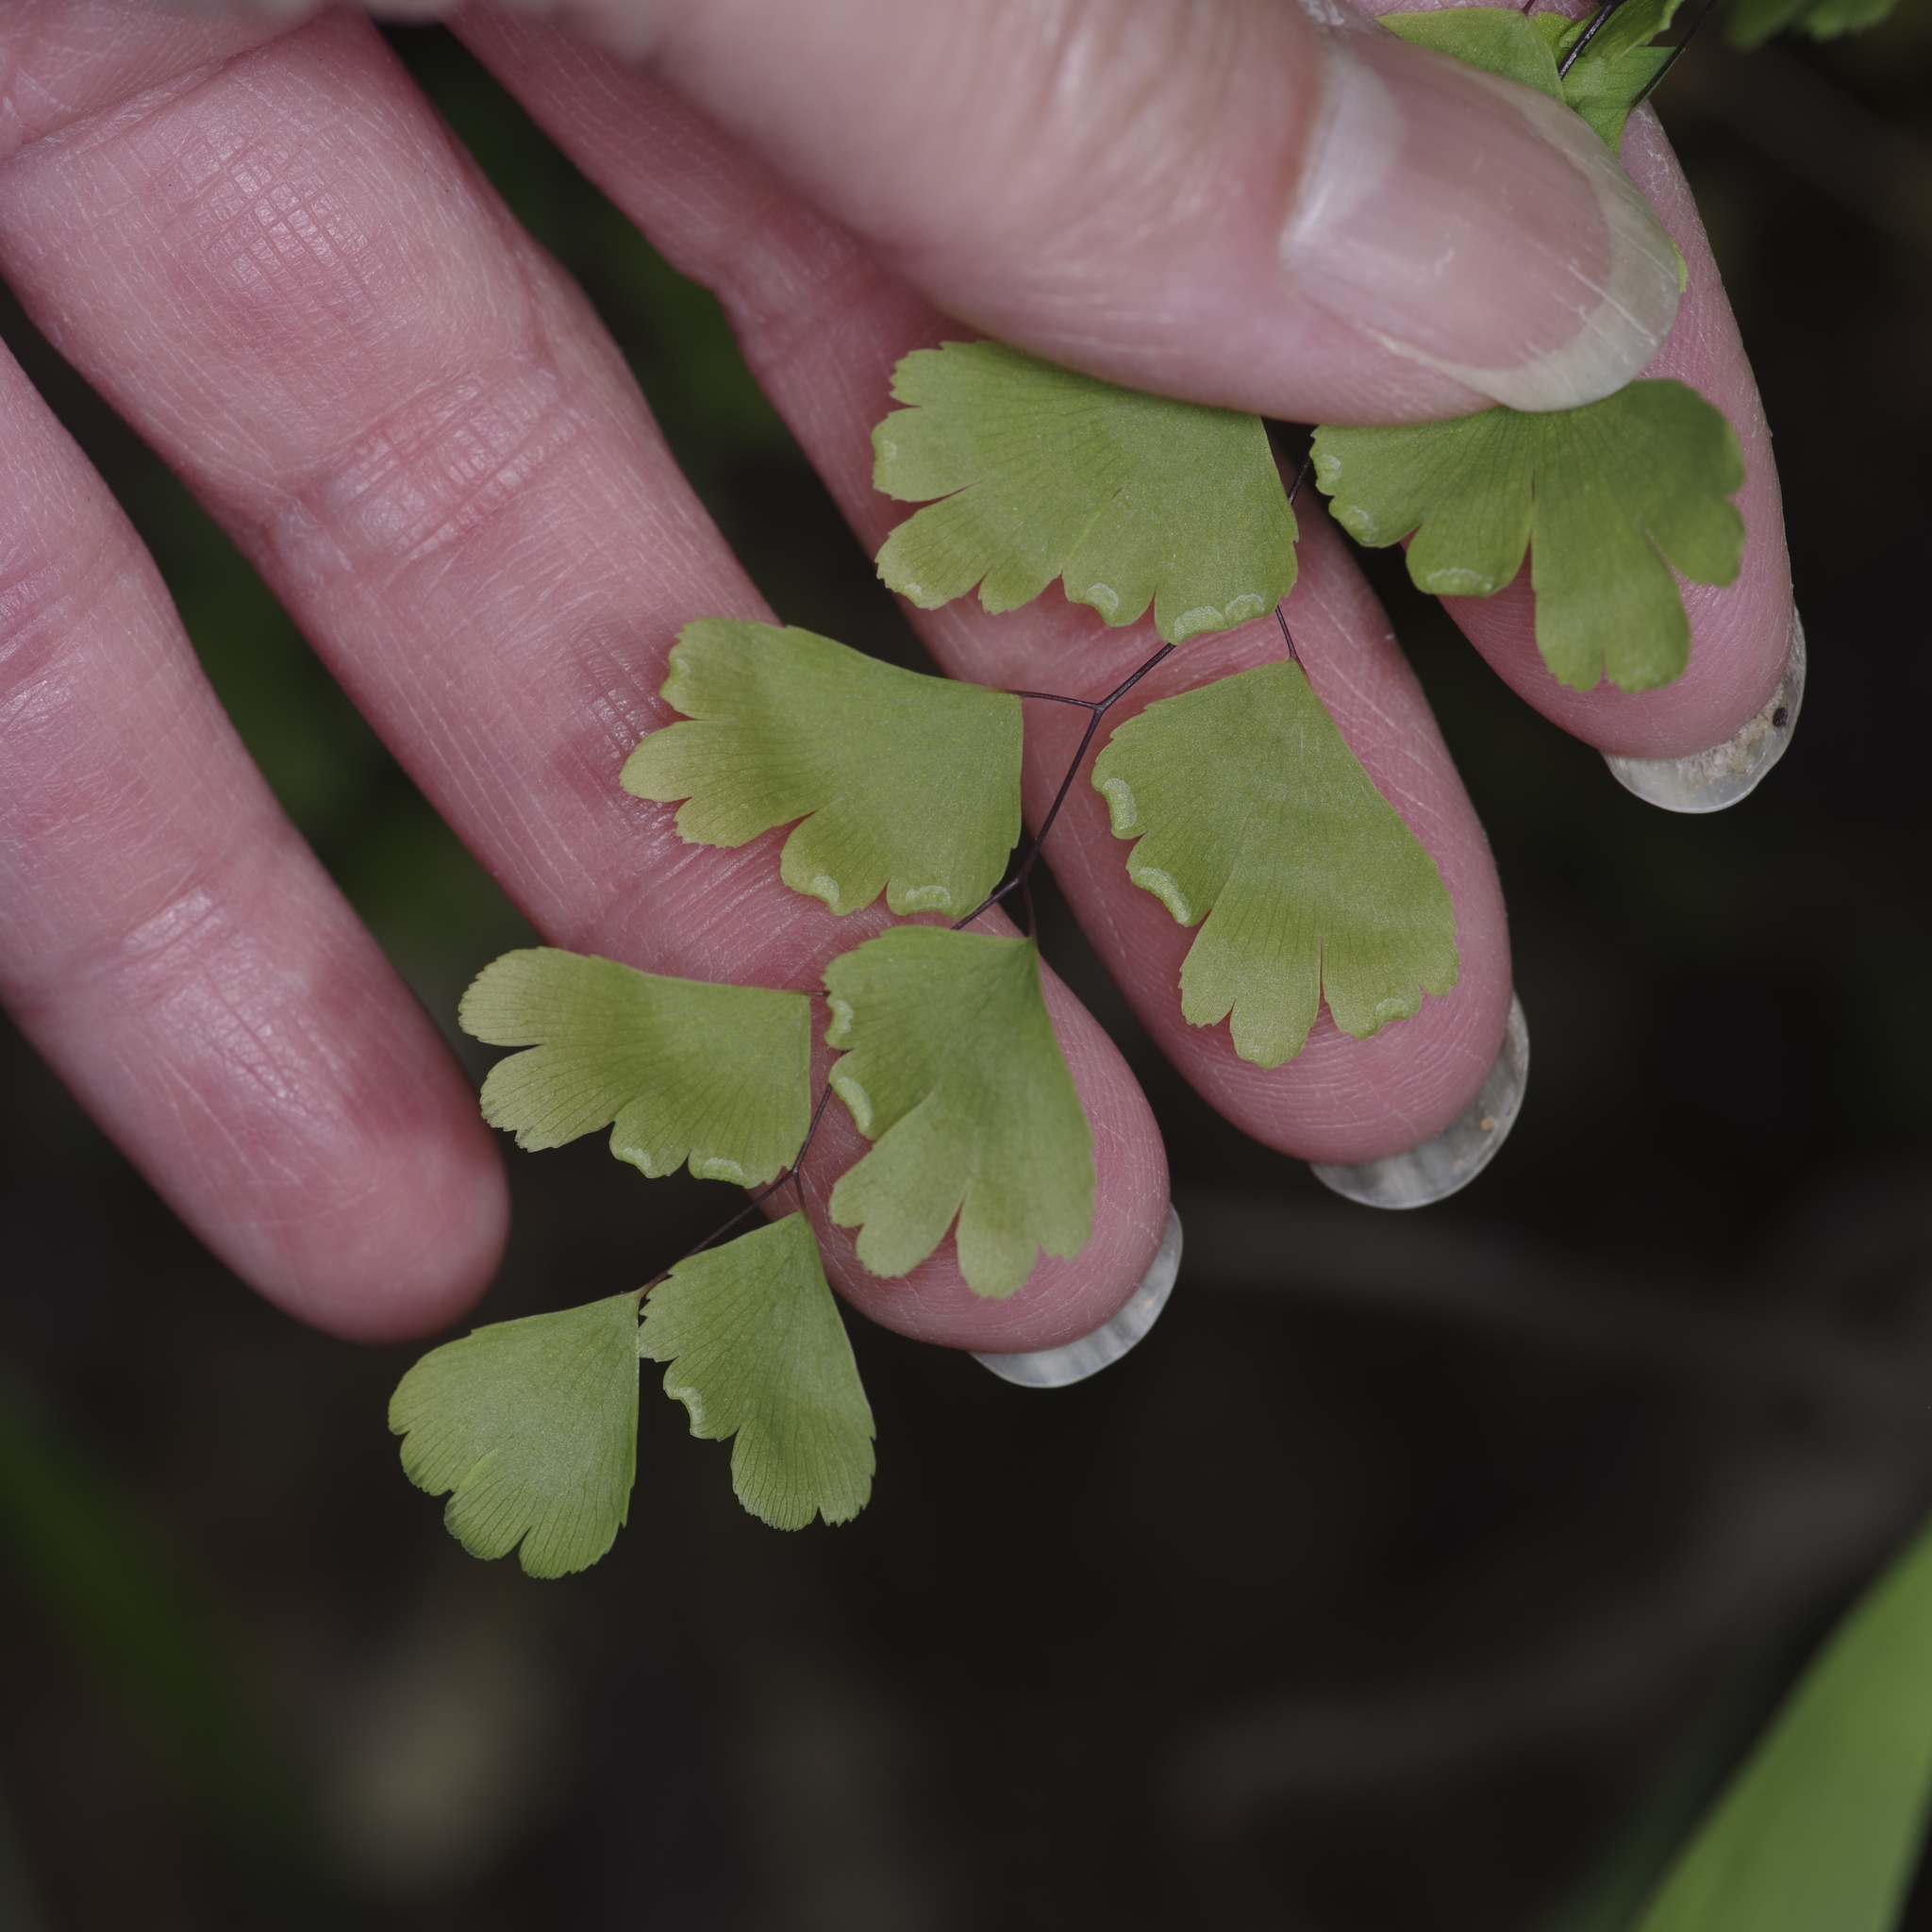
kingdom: Plantae
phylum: Tracheophyta
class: Polypodiopsida
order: Polypodiales
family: Pteridaceae
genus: Adiantum
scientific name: Adiantum capillus-veneris
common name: Maidenhair fern
